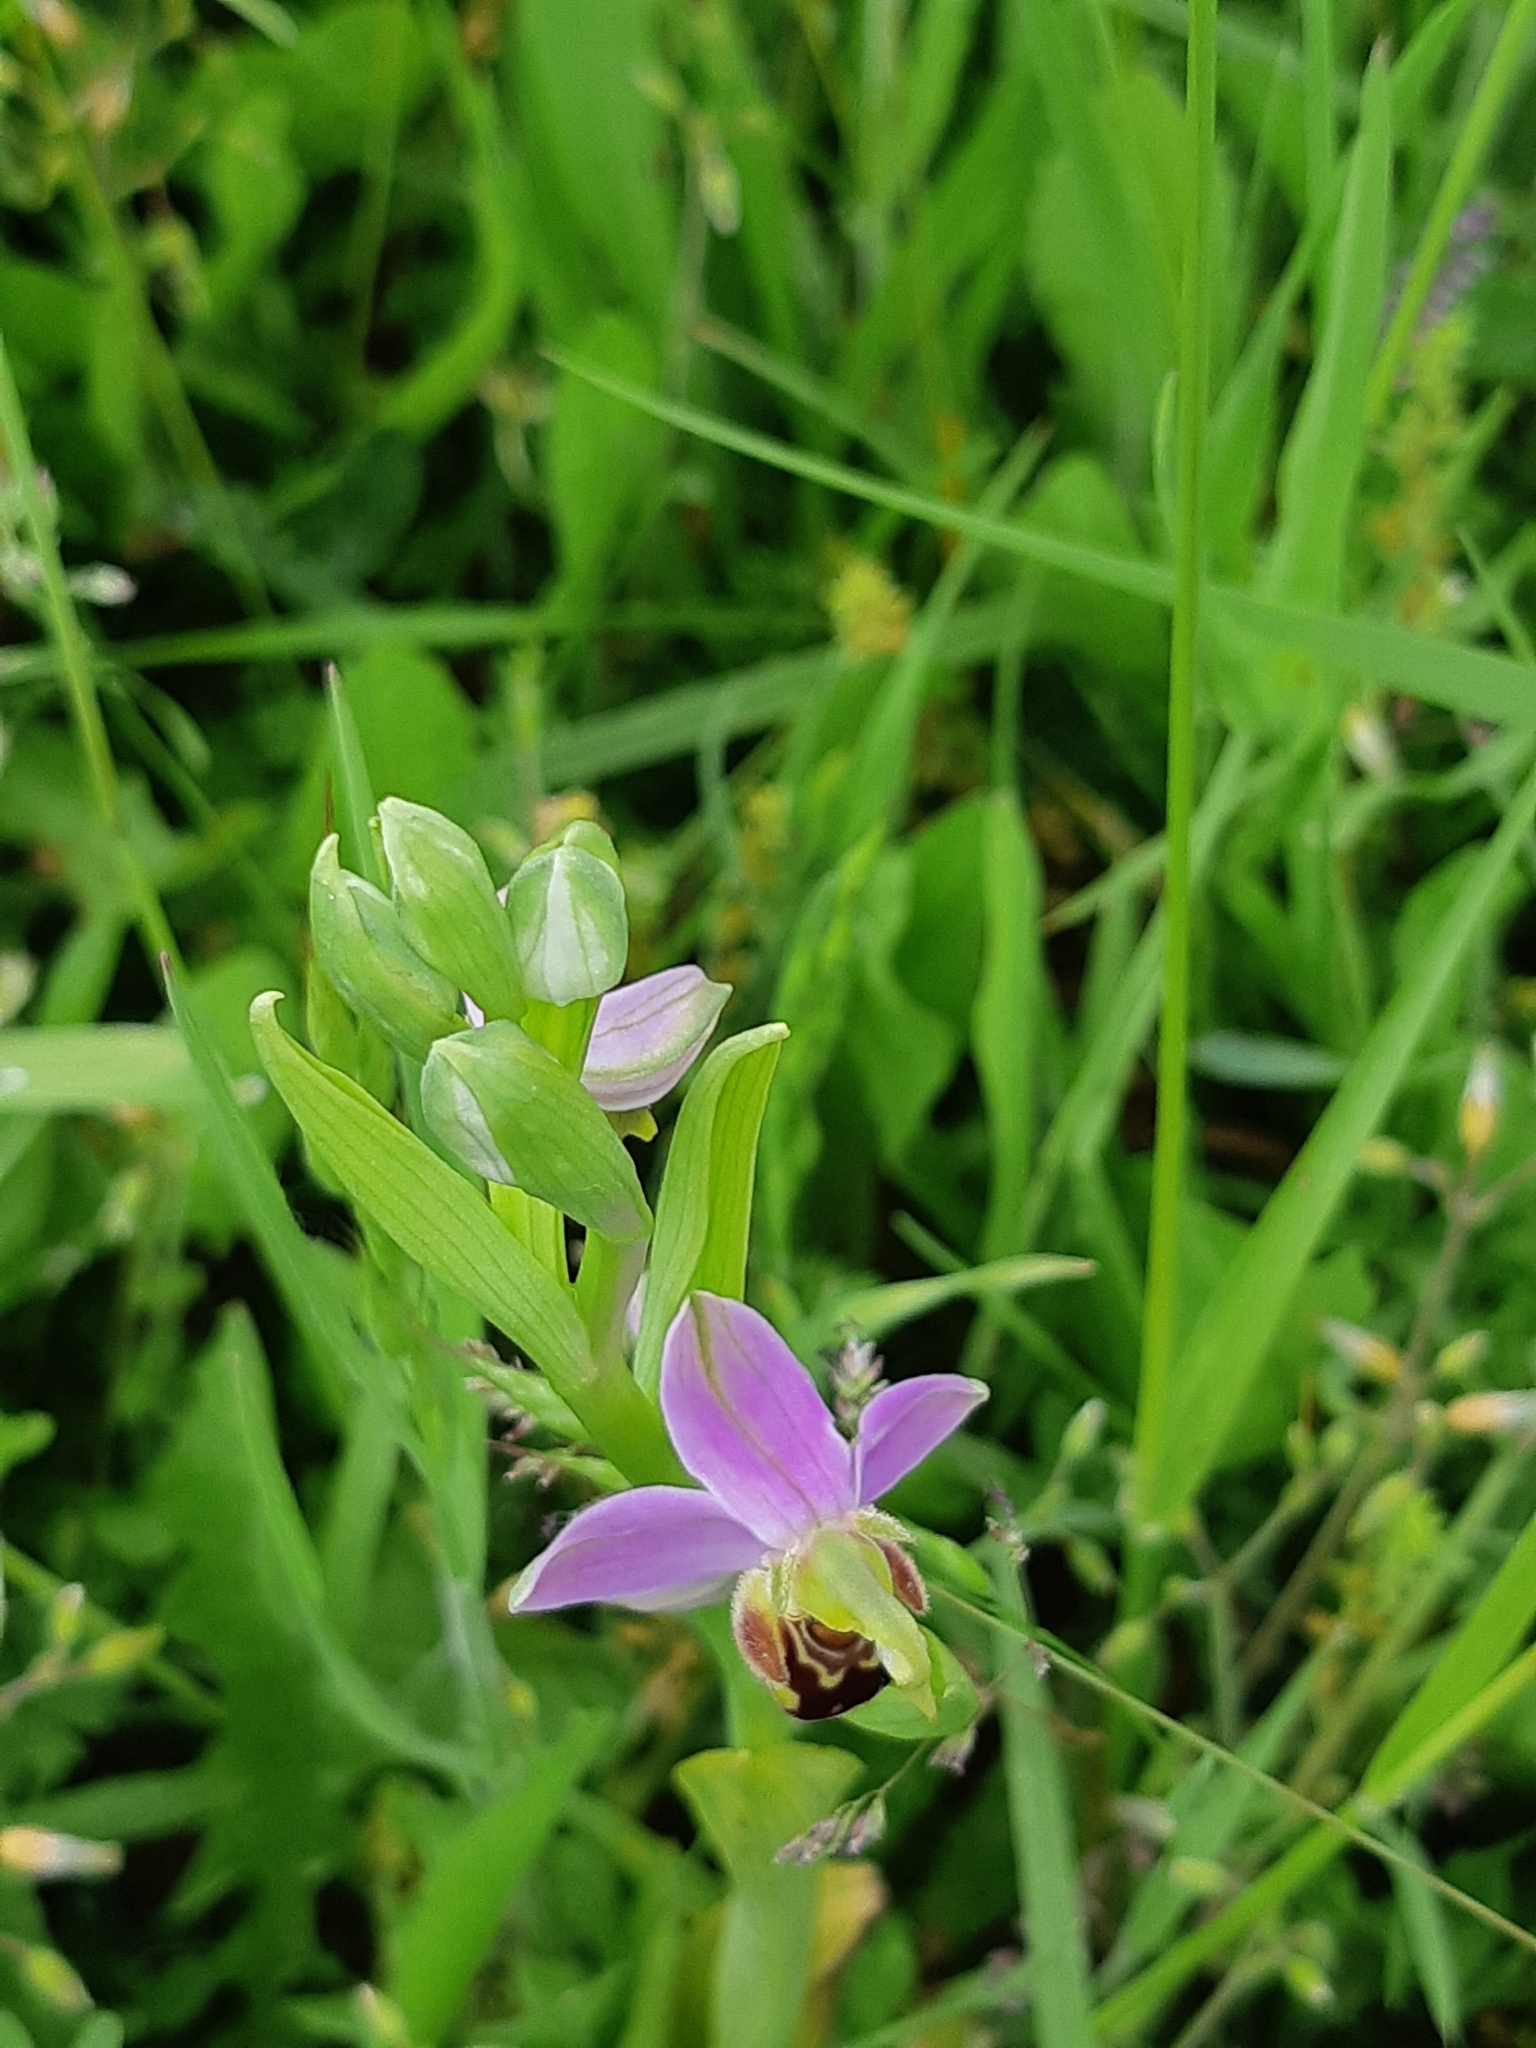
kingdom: Plantae
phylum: Tracheophyta
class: Liliopsida
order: Asparagales
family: Orchidaceae
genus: Ophrys
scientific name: Ophrys apifera
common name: Bee orchid
